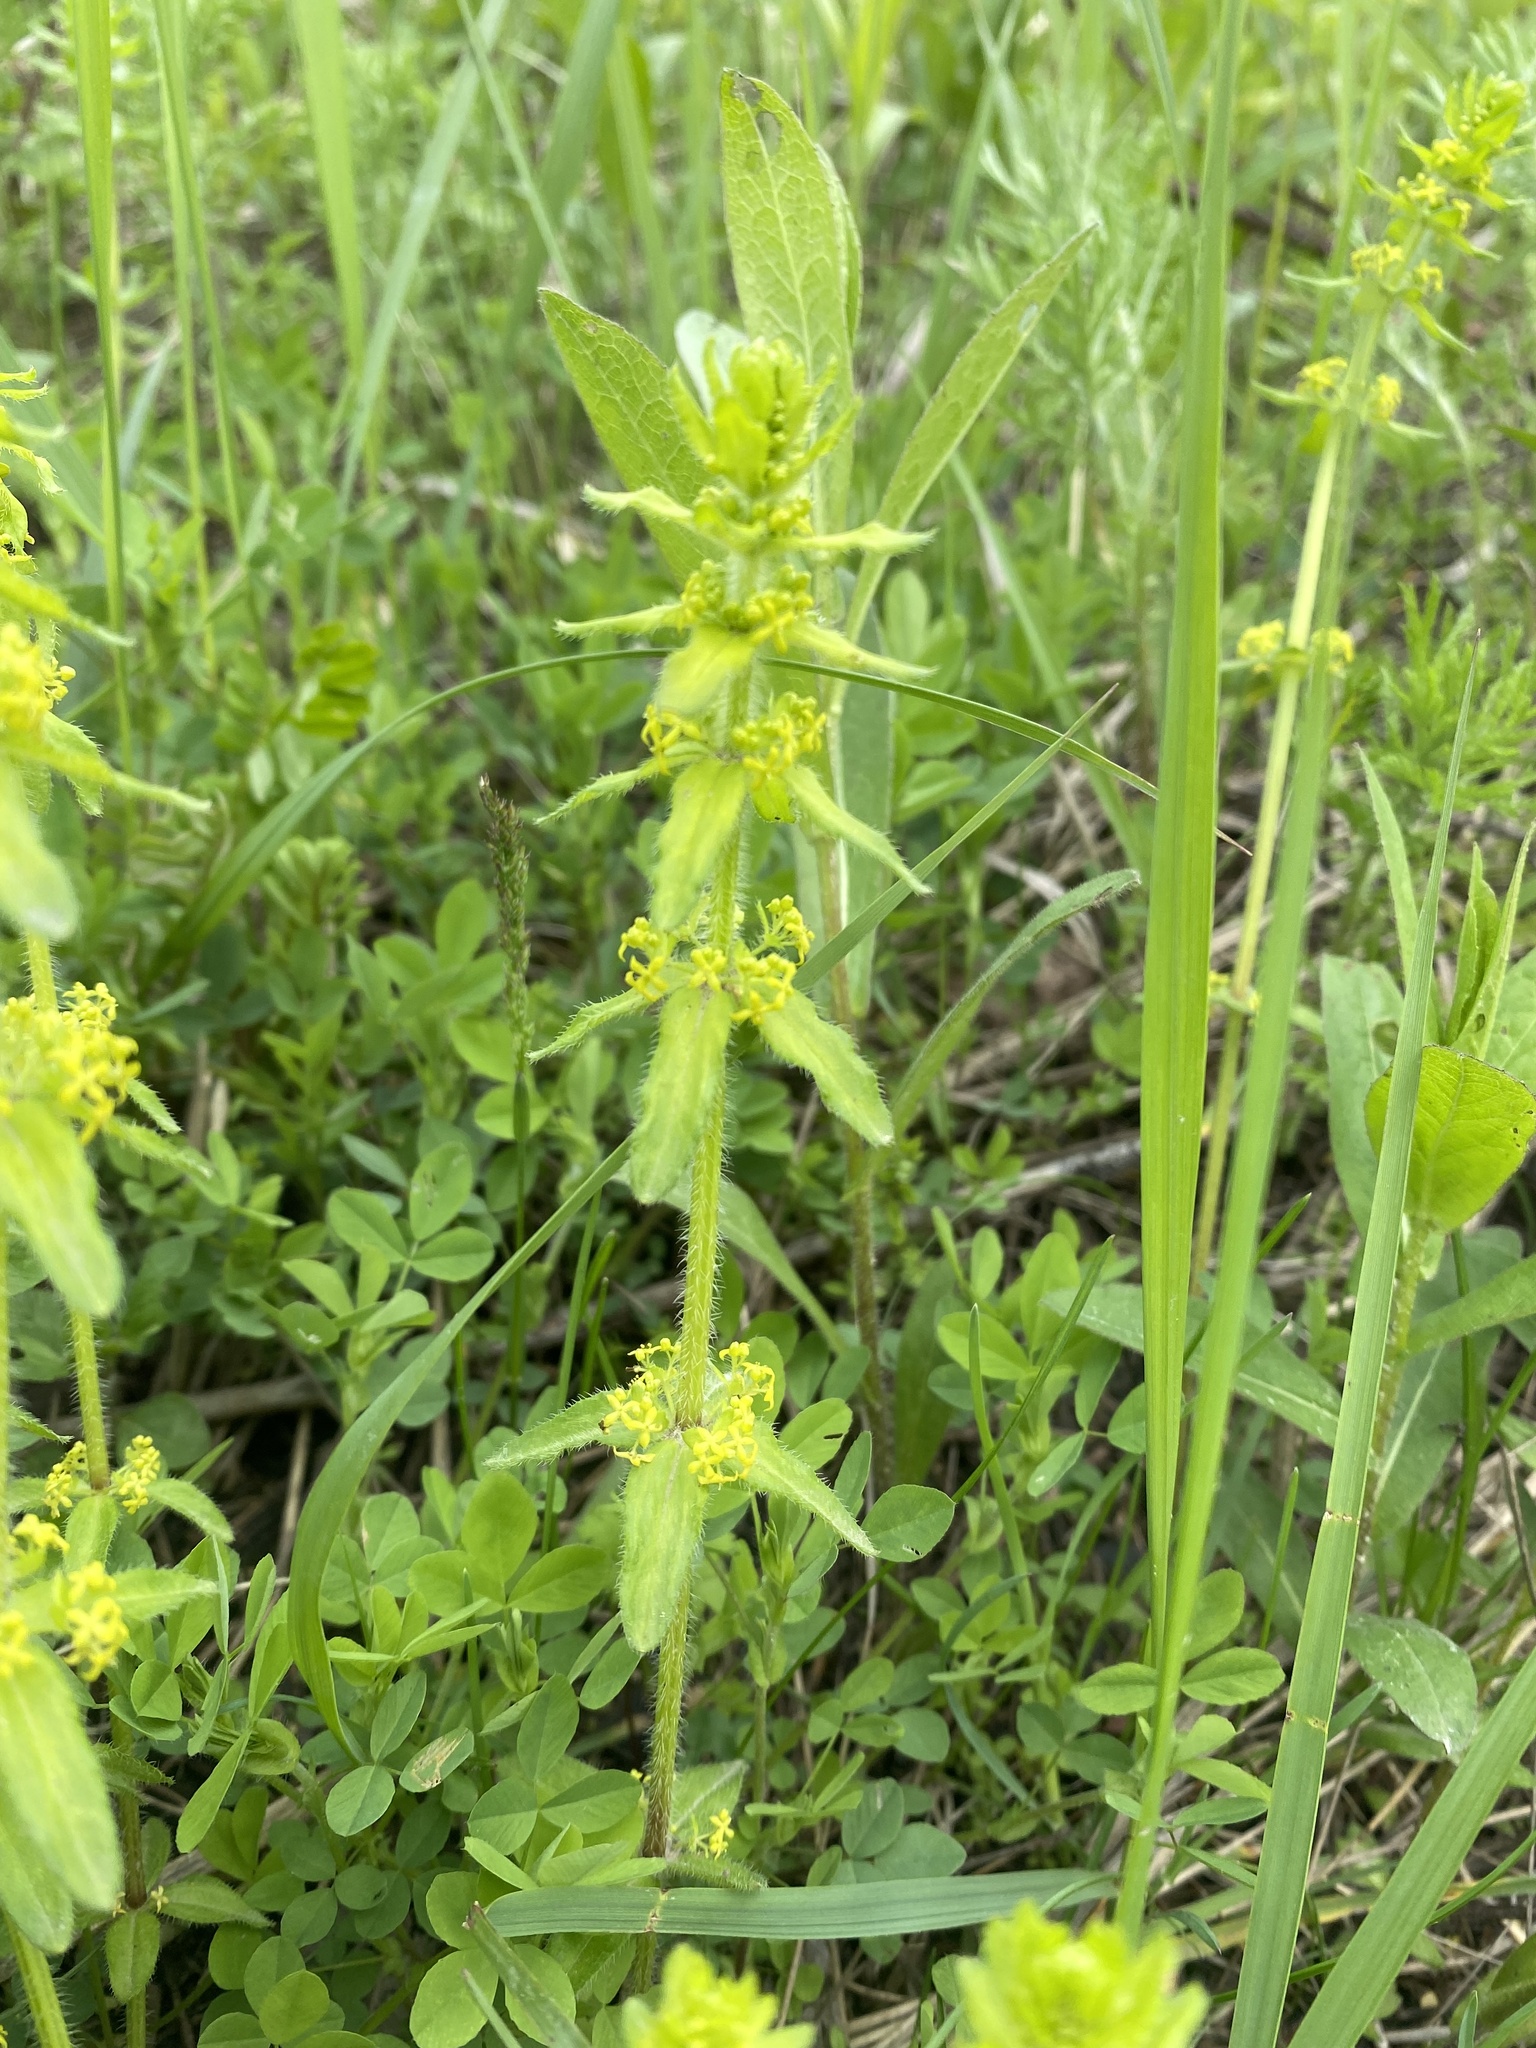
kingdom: Plantae
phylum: Tracheophyta
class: Magnoliopsida
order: Gentianales
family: Rubiaceae
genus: Cruciata
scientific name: Cruciata laevipes
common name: Crosswort
